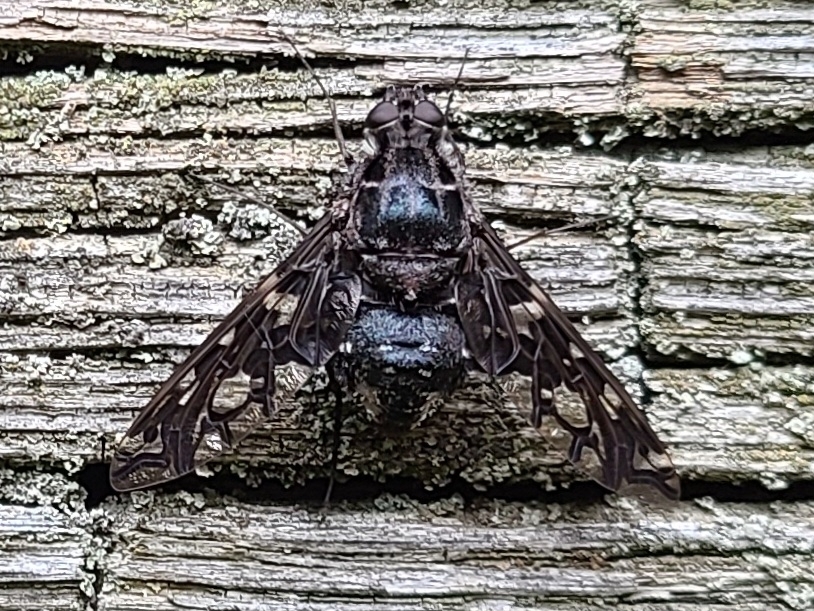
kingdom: Animalia
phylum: Arthropoda
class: Insecta
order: Diptera
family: Bombyliidae
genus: Xenox
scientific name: Xenox tigrinus
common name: Tiger bee fly
